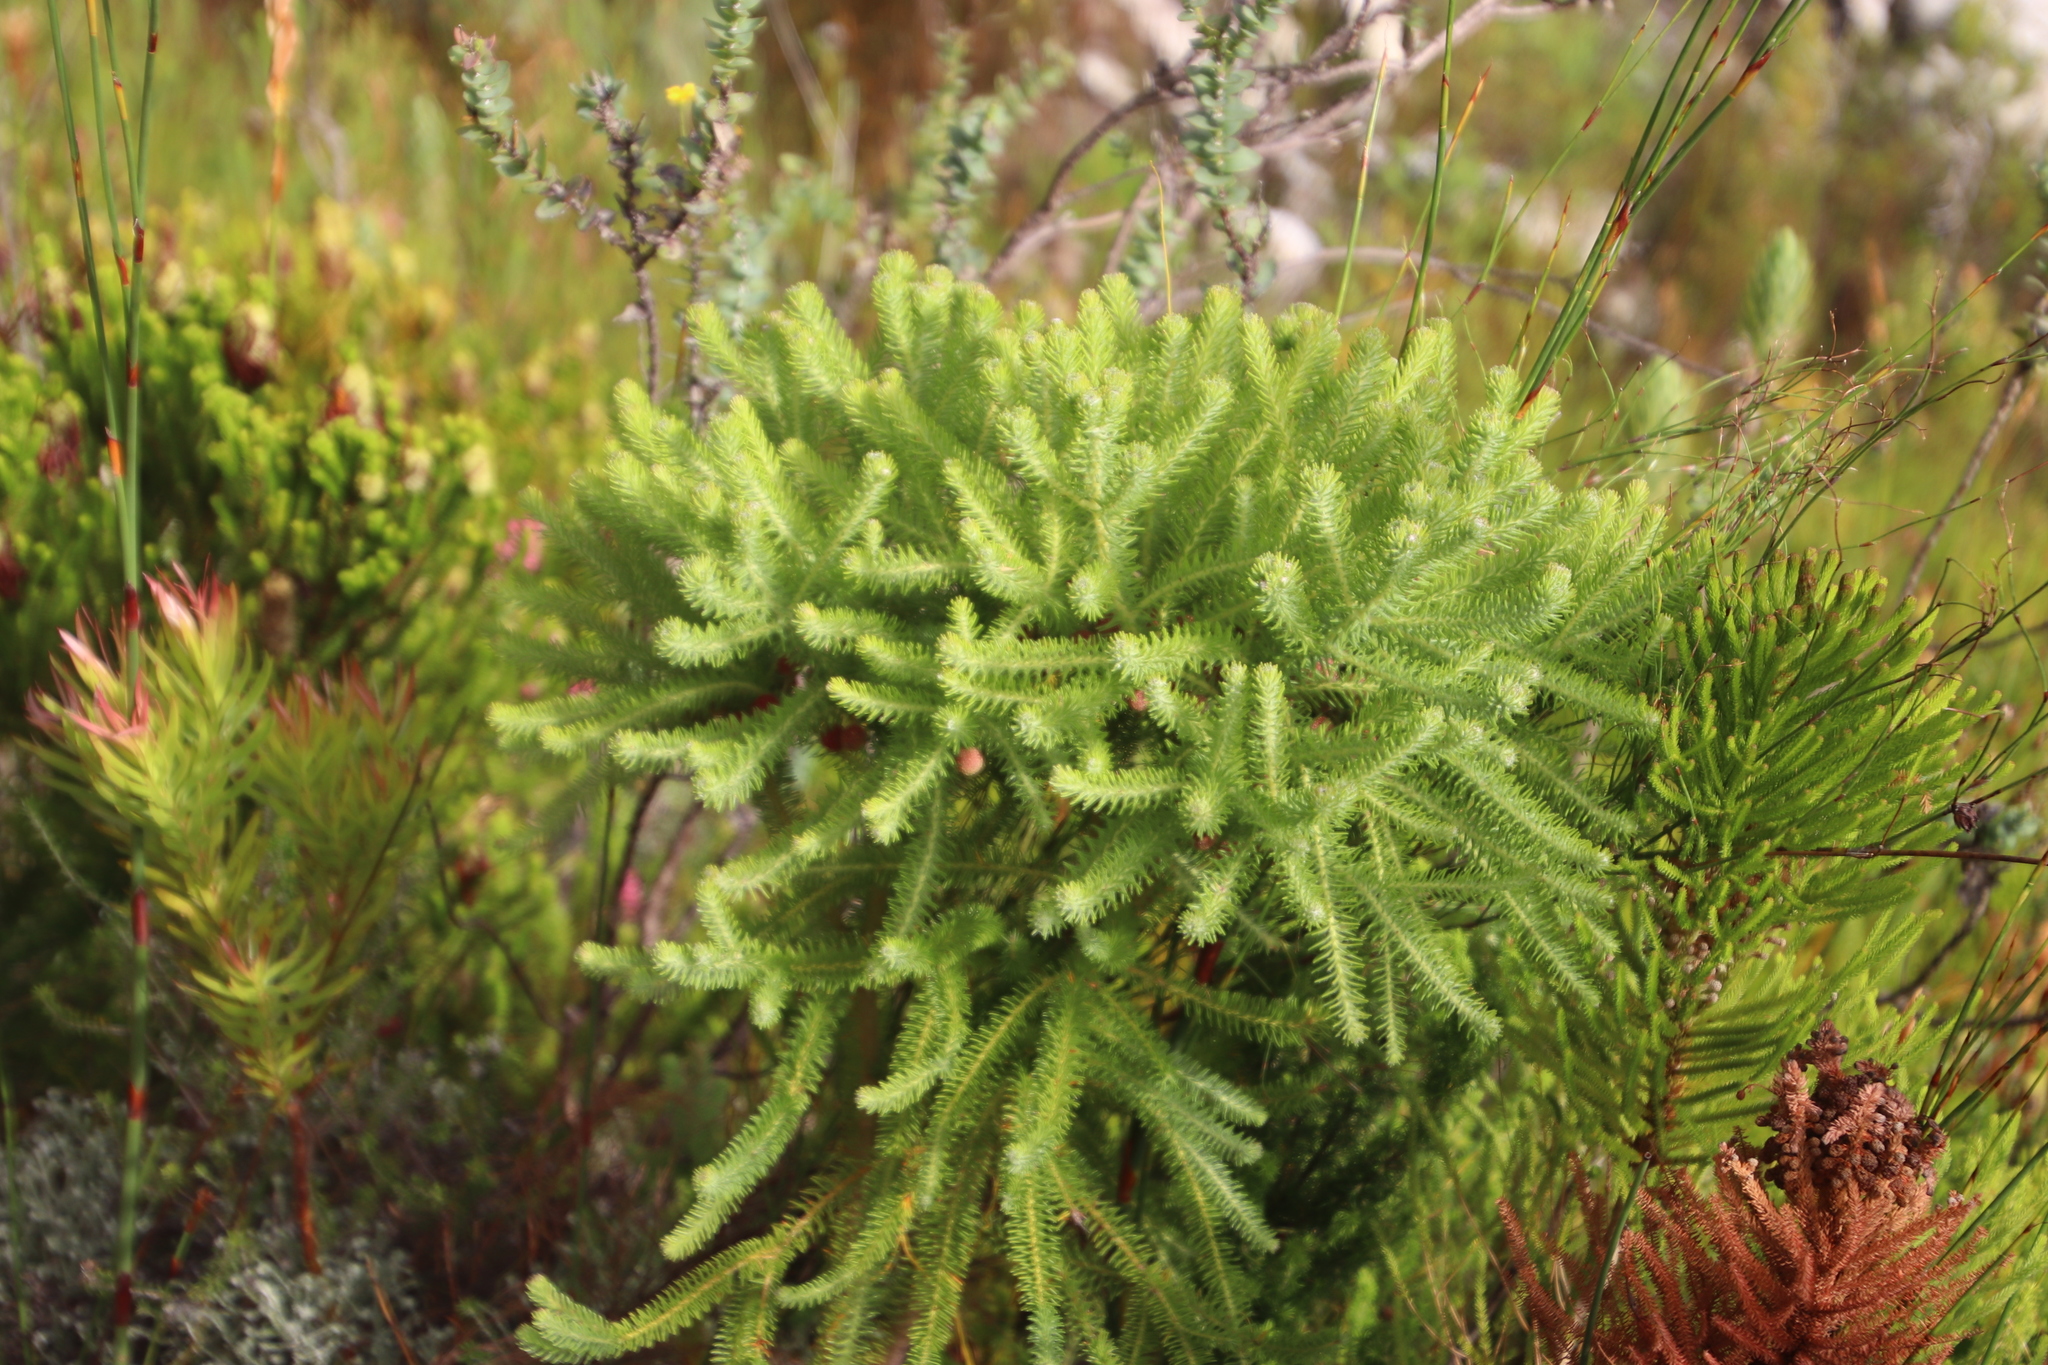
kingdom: Plantae
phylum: Tracheophyta
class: Magnoliopsida
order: Bruniales
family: Bruniaceae
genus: Berzelia
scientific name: Berzelia squarrosa
